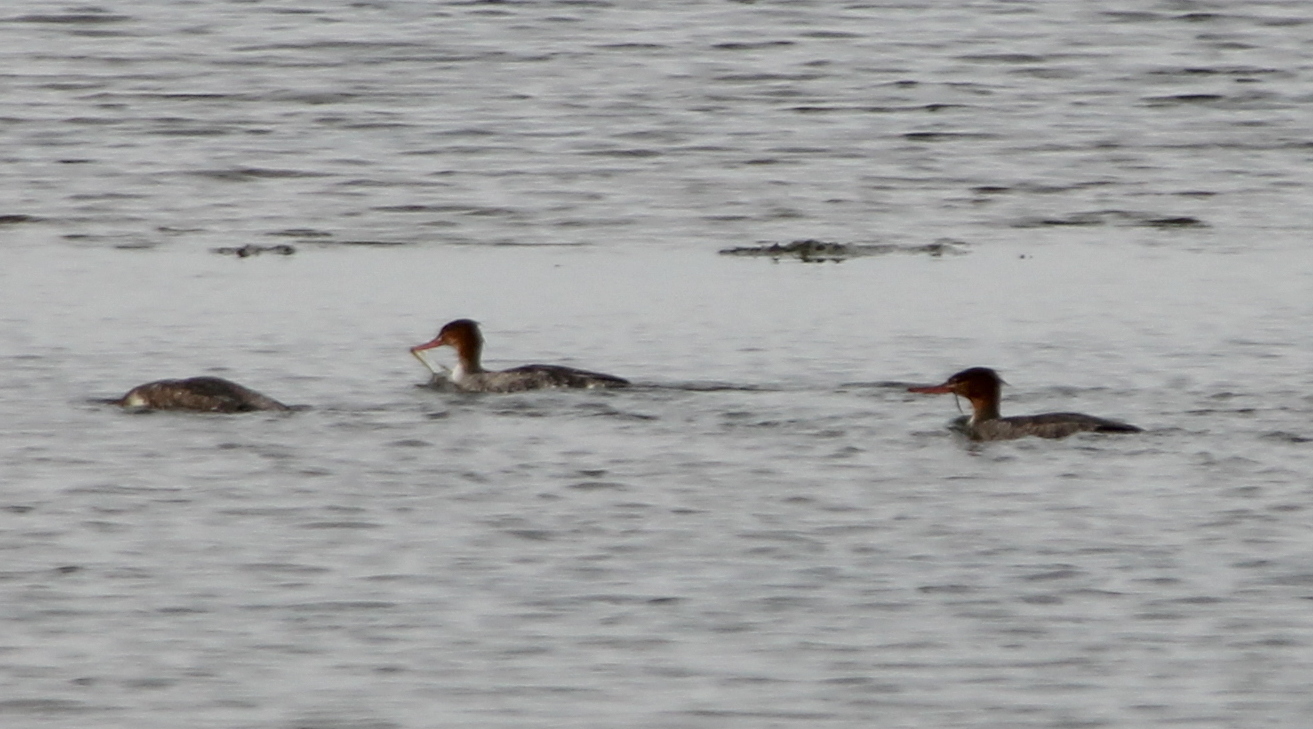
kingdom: Animalia
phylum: Chordata
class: Aves
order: Anseriformes
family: Anatidae
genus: Mergus
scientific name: Mergus serrator
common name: Red-breasted merganser
